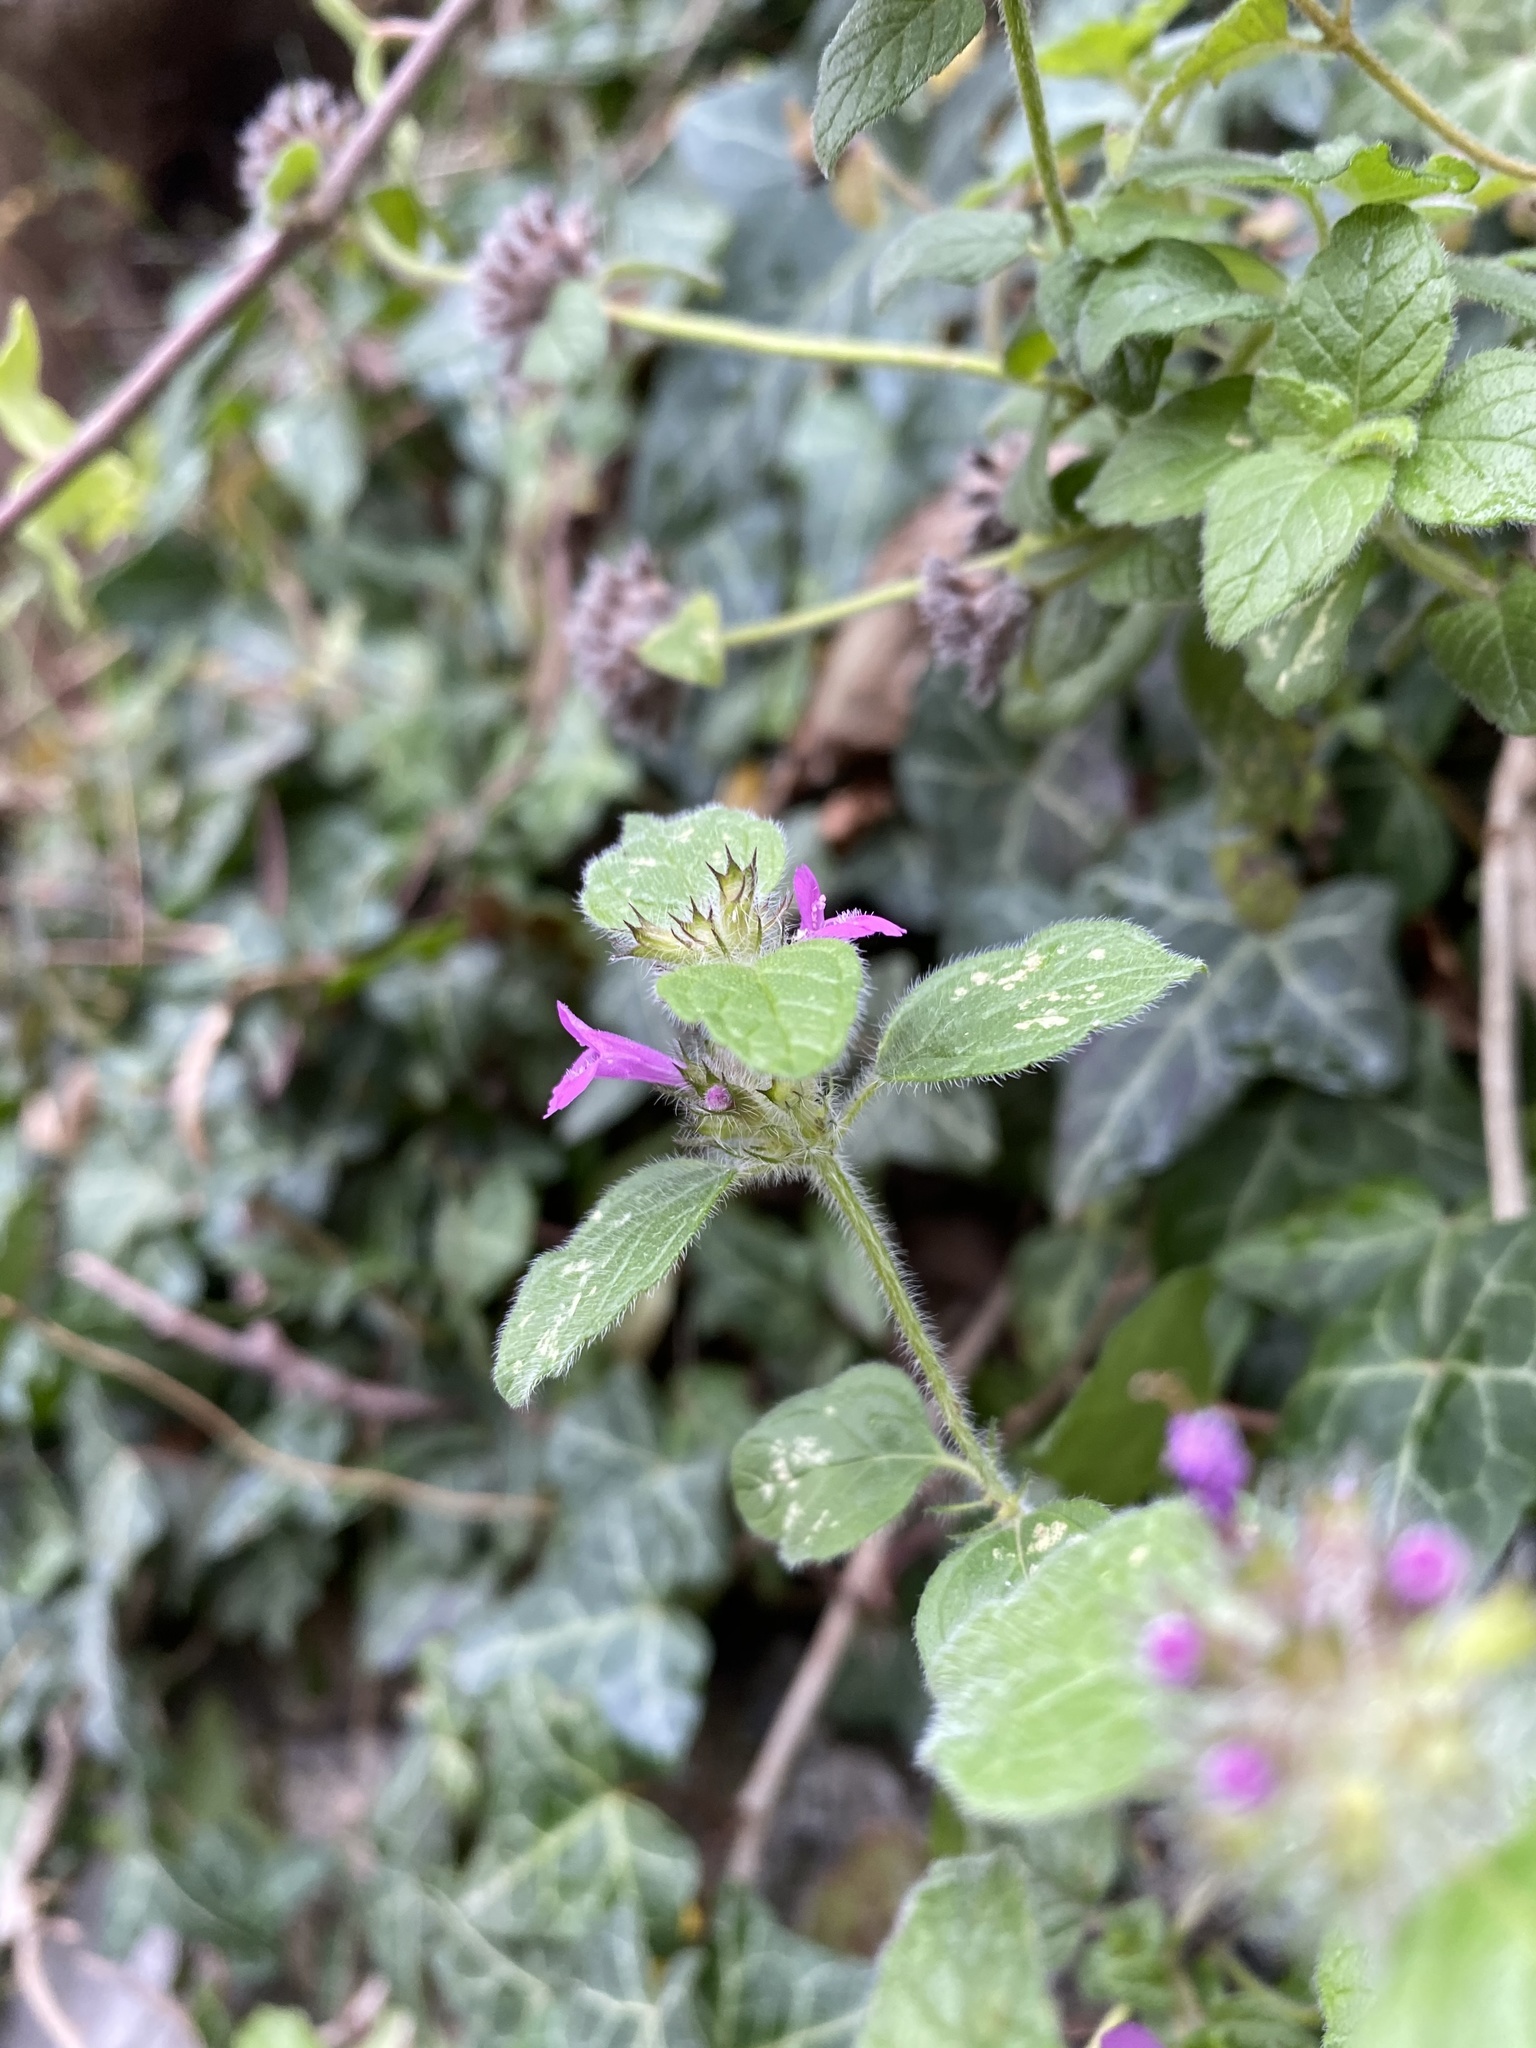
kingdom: Plantae
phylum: Tracheophyta
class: Magnoliopsida
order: Lamiales
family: Lamiaceae
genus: Clinopodium
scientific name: Clinopodium vulgare
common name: Wild basil
